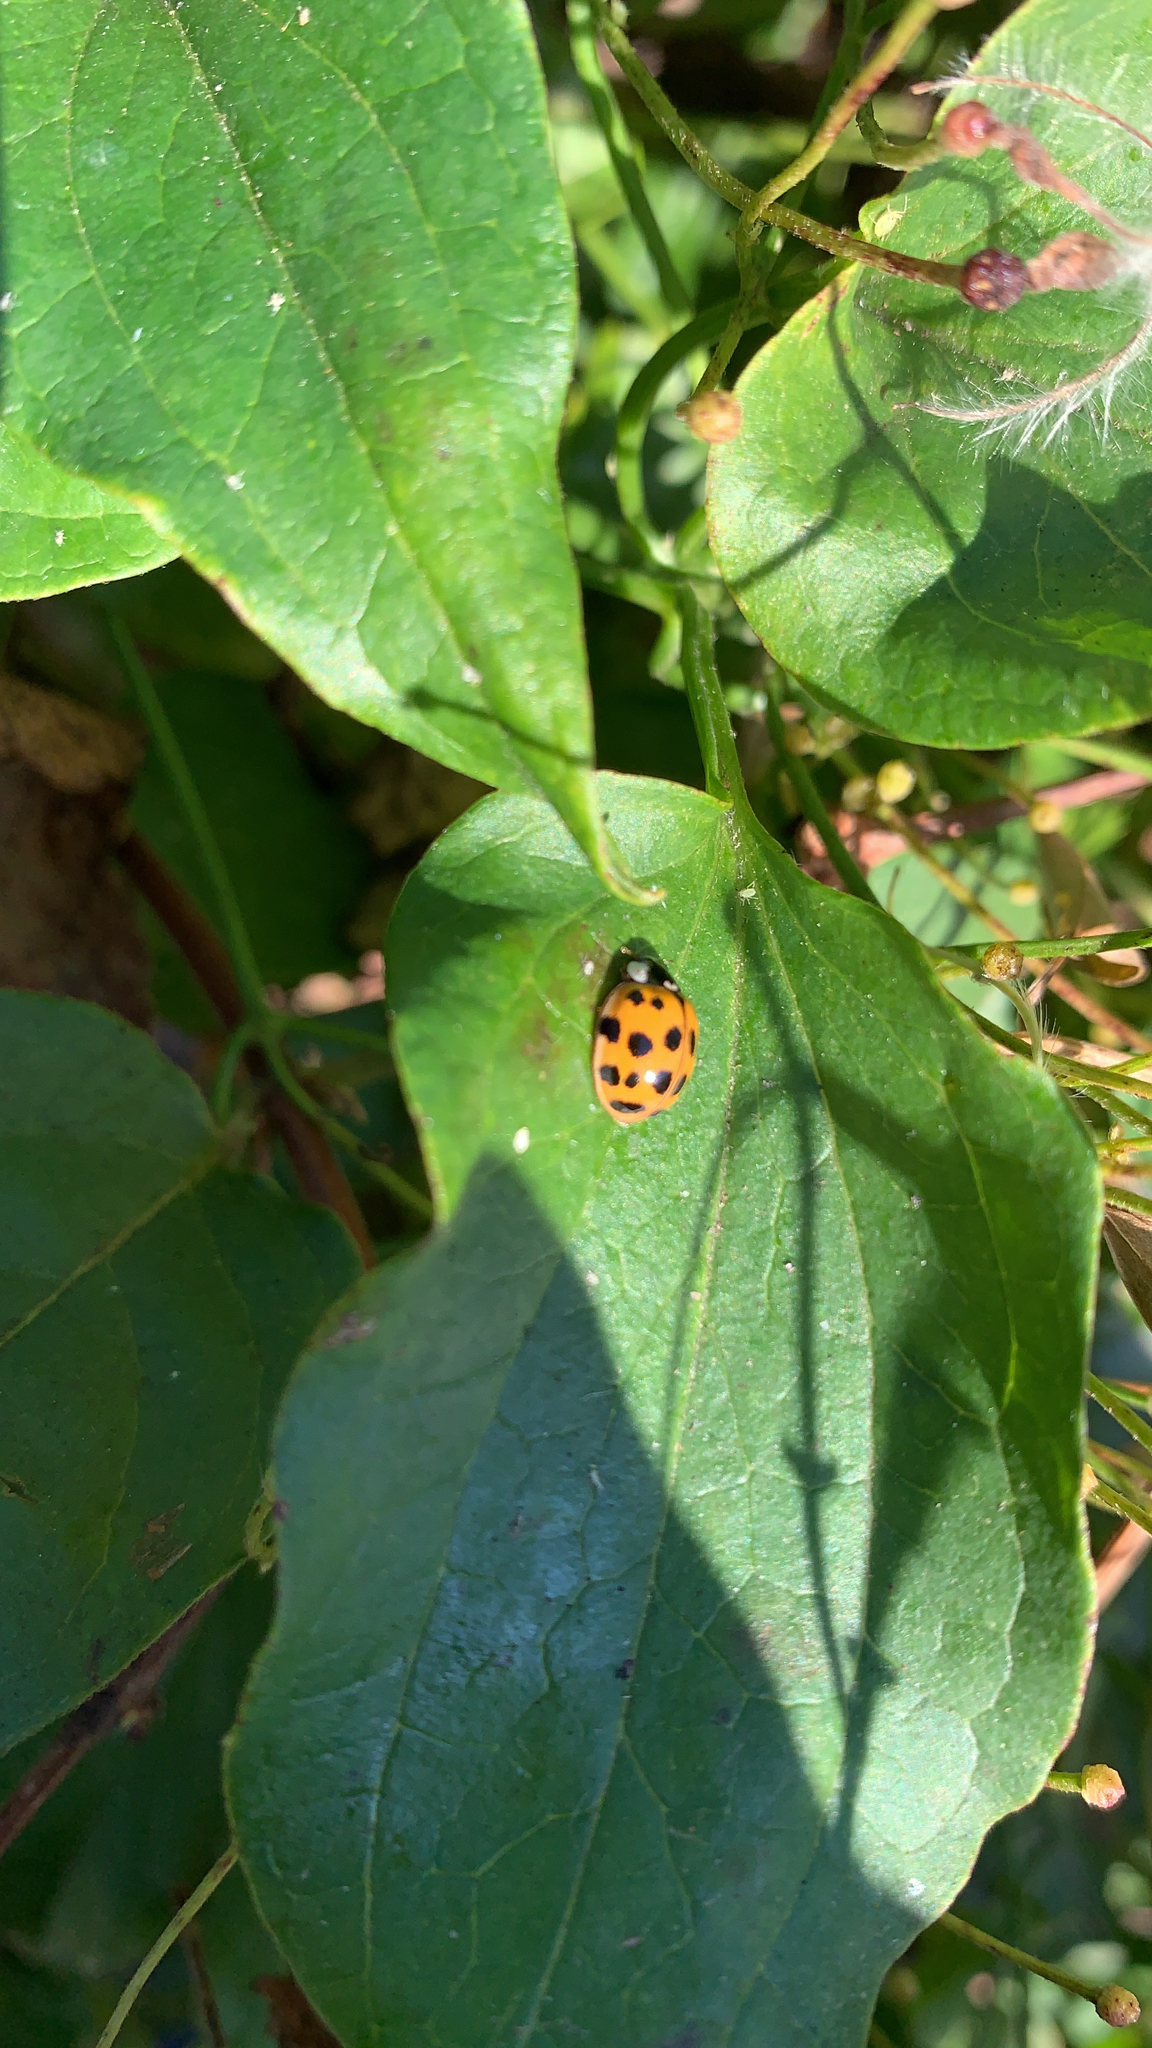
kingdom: Animalia
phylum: Arthropoda
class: Insecta
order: Coleoptera
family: Coccinellidae
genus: Harmonia
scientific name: Harmonia axyridis
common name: Harlequin ladybird
